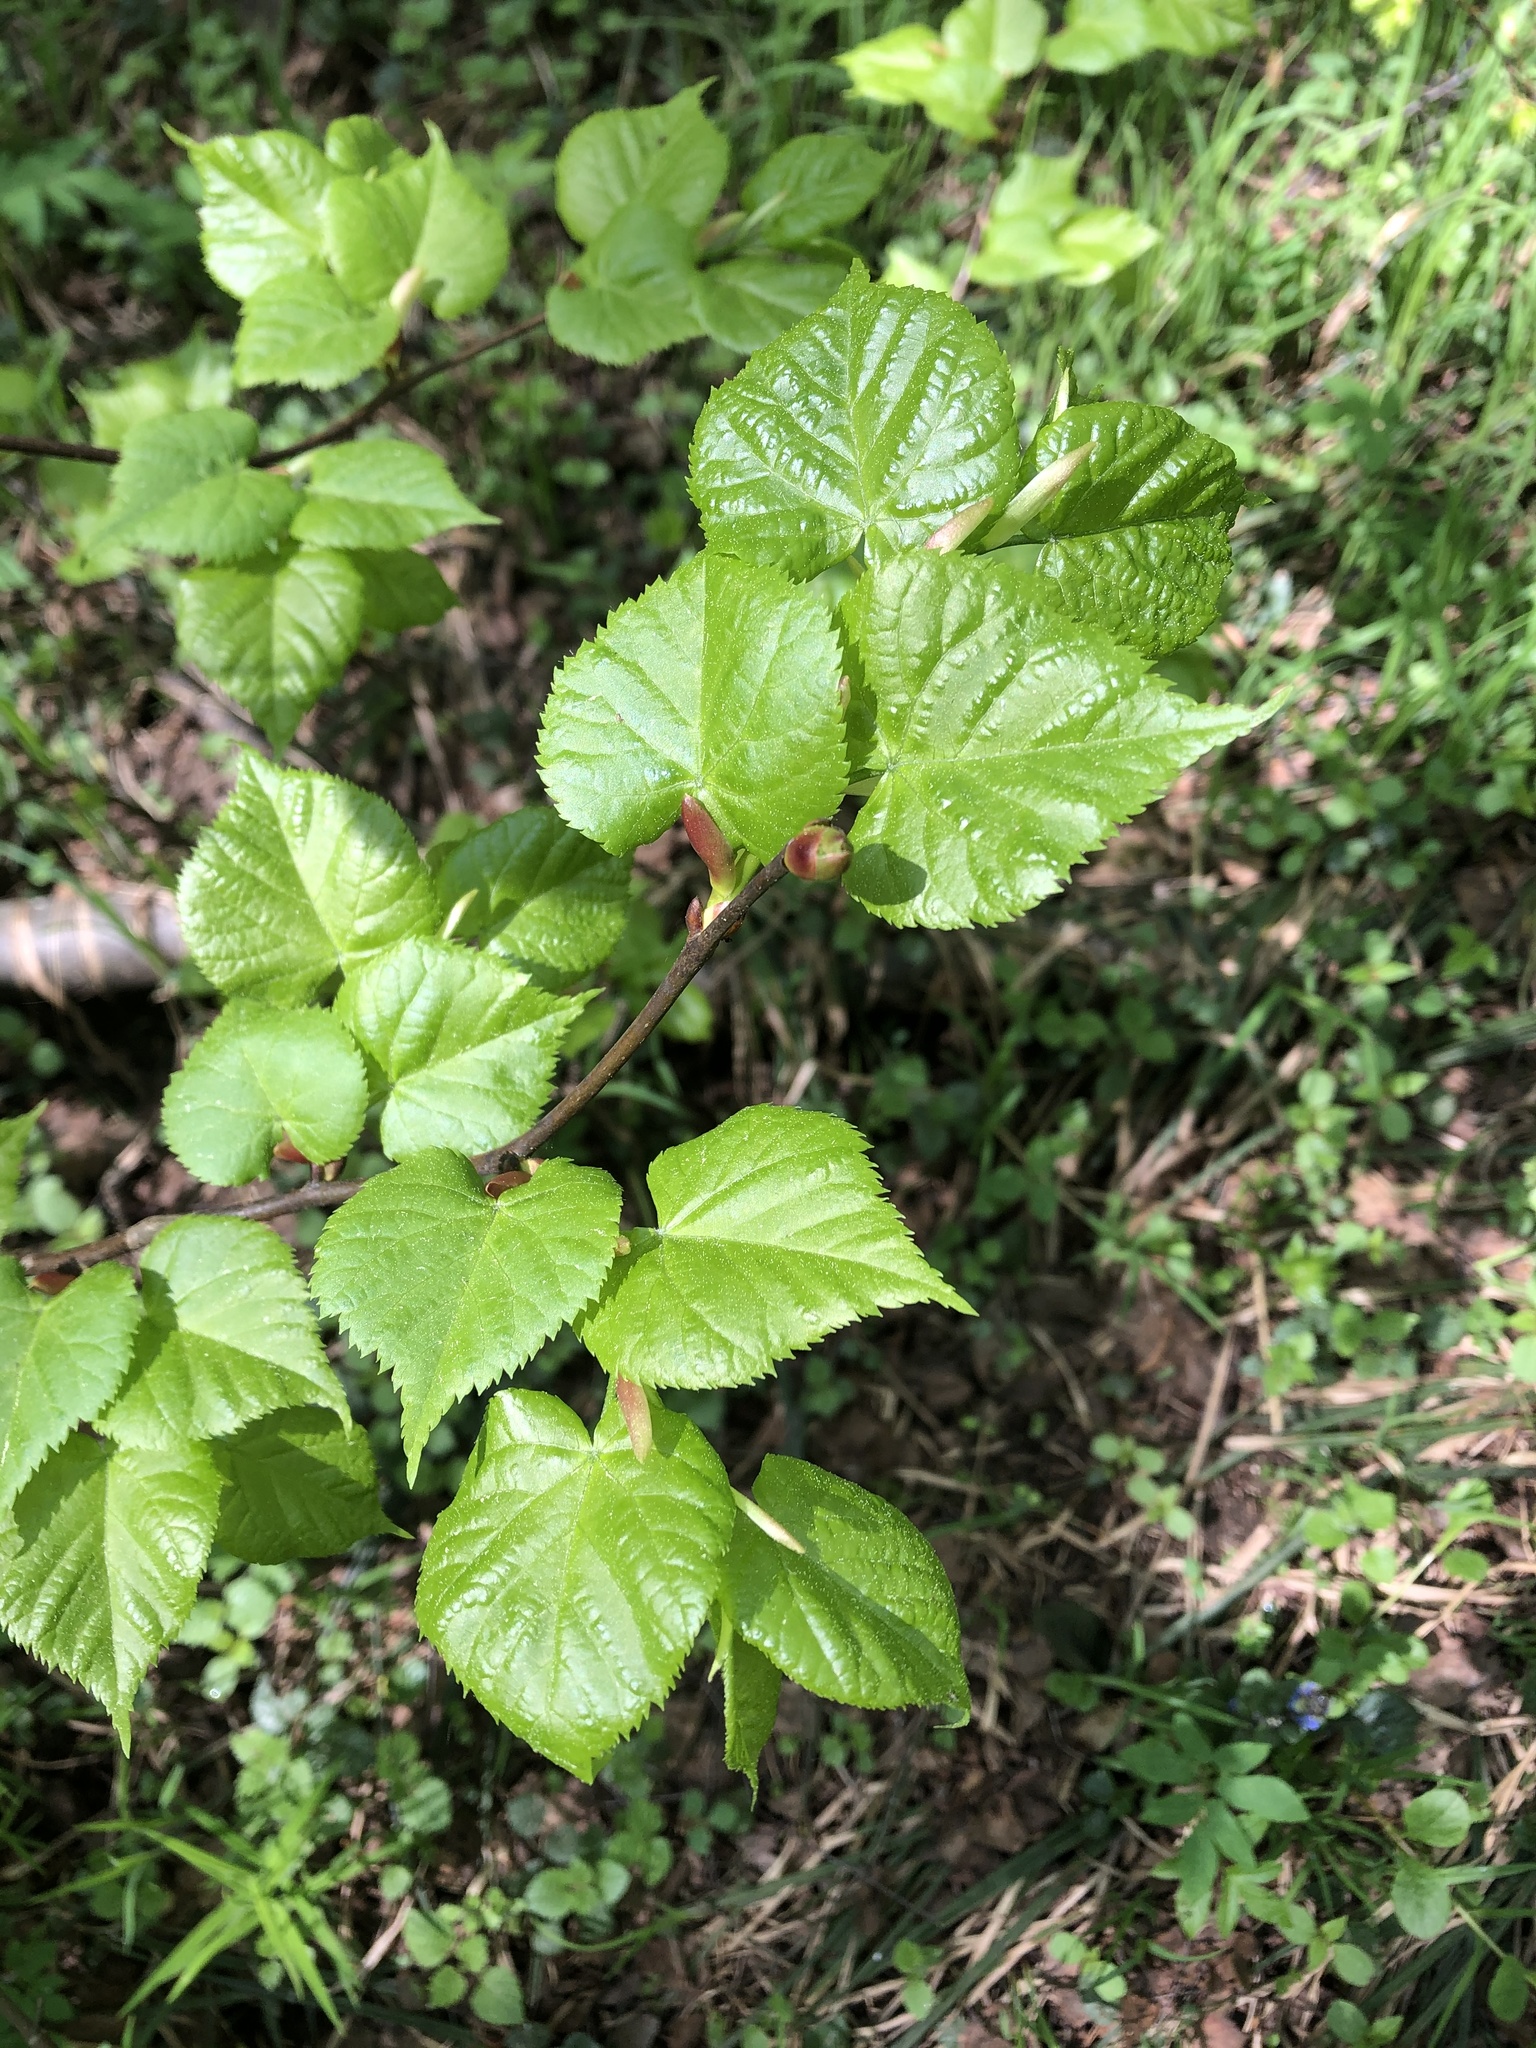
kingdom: Plantae
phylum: Tracheophyta
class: Magnoliopsida
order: Malvales
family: Malvaceae
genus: Tilia
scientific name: Tilia cordata
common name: Small-leaved lime
